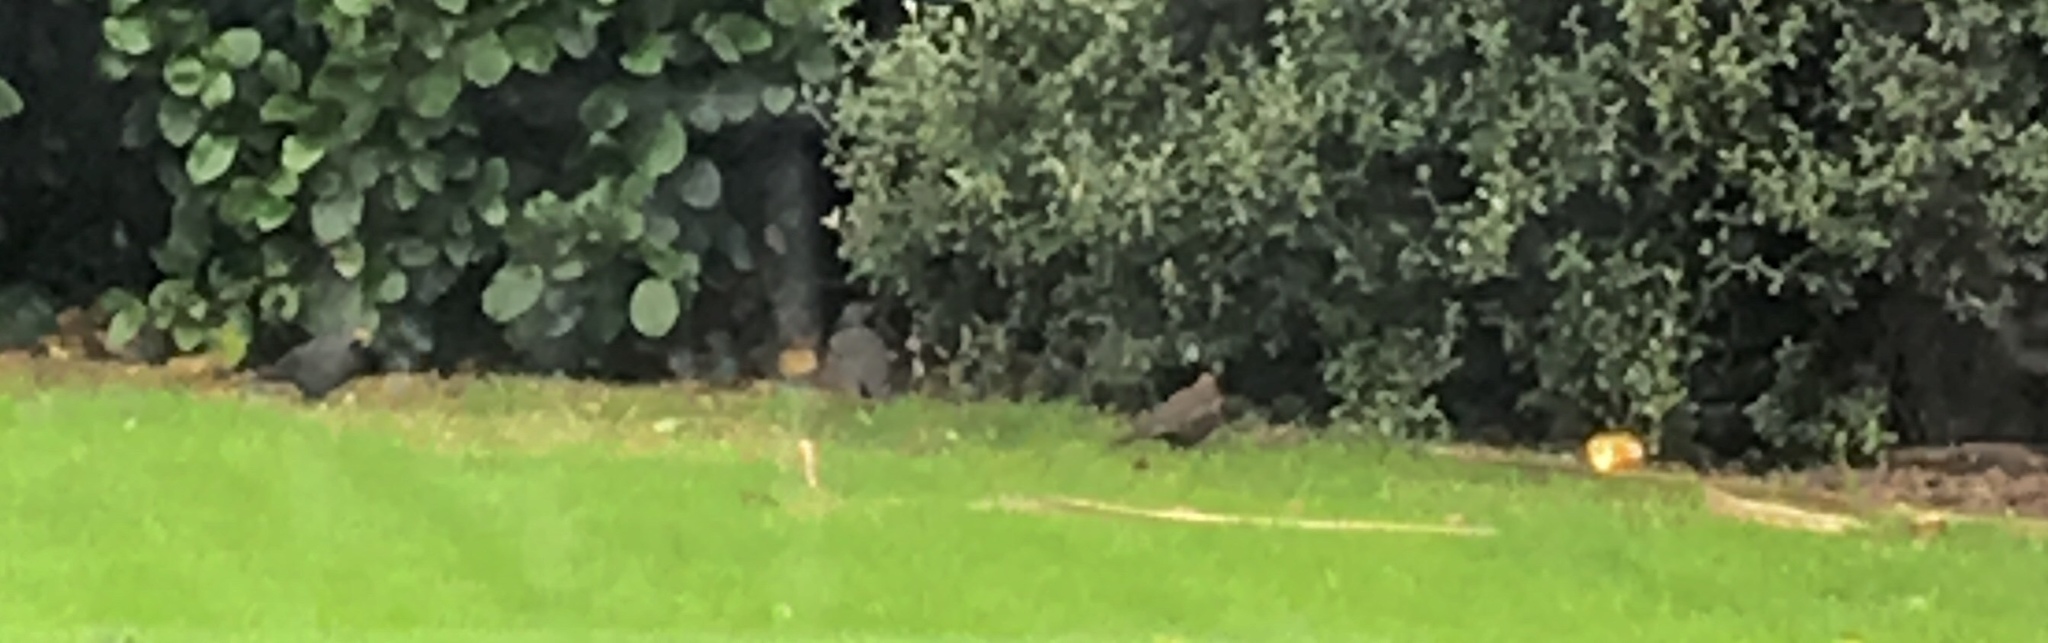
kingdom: Animalia
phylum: Chordata
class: Aves
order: Passeriformes
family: Turdidae
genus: Turdus
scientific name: Turdus merula
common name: Common blackbird
